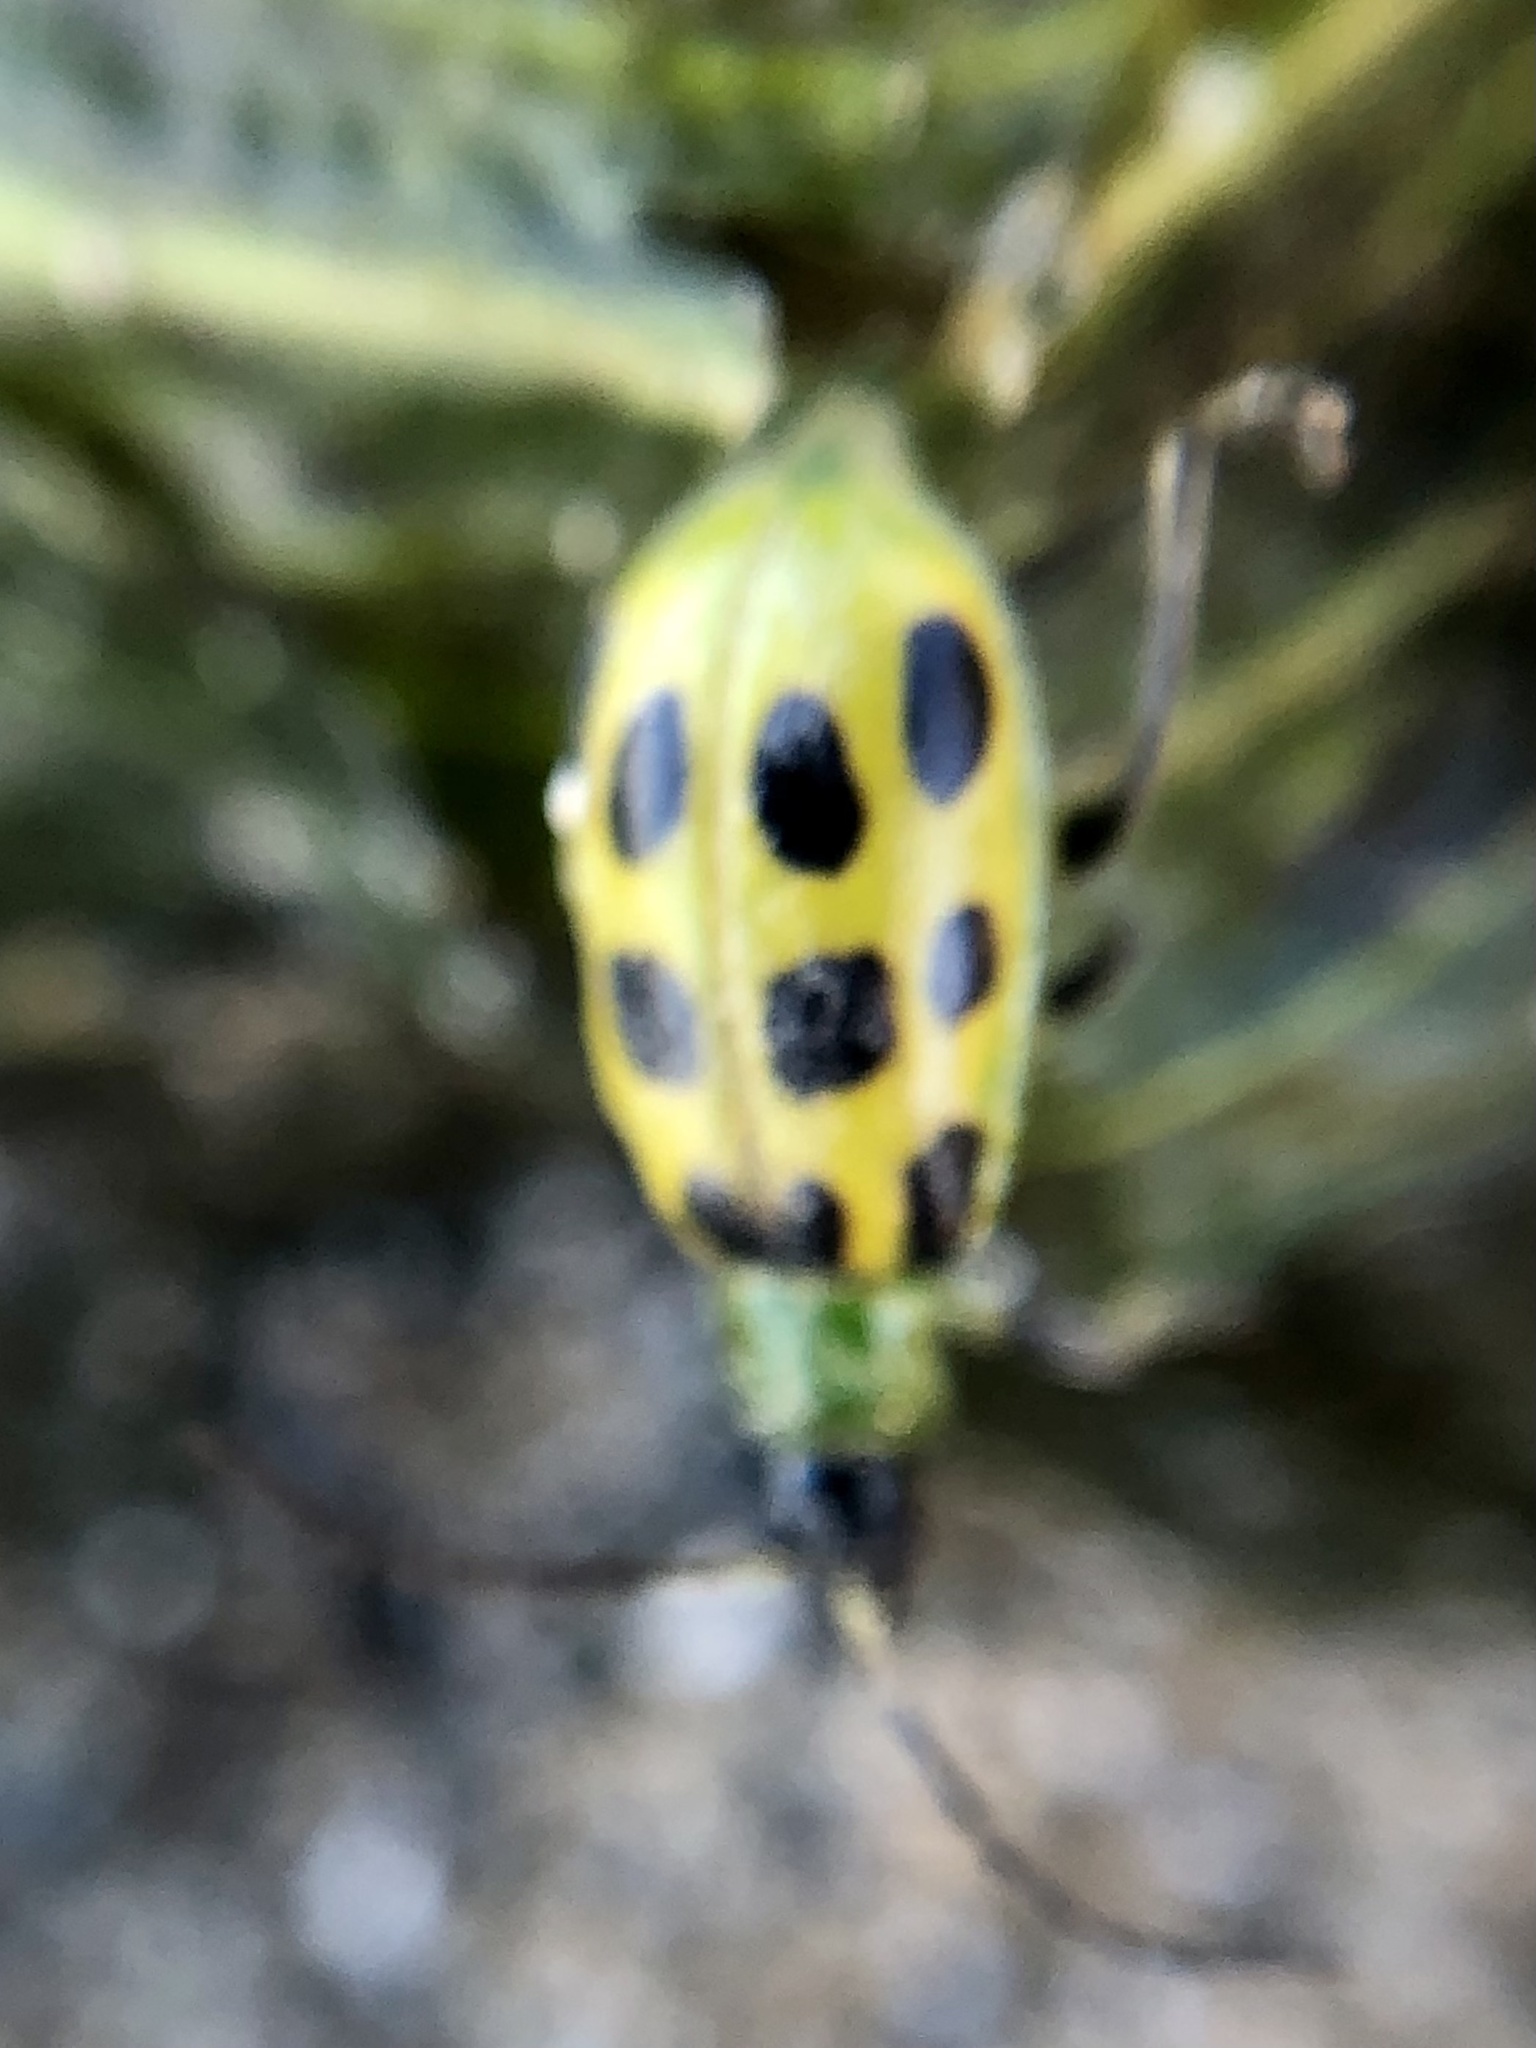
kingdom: Animalia
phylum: Arthropoda
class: Insecta
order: Coleoptera
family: Chrysomelidae
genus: Diabrotica
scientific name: Diabrotica undecimpunctata
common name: Spotted cucumber beetle
